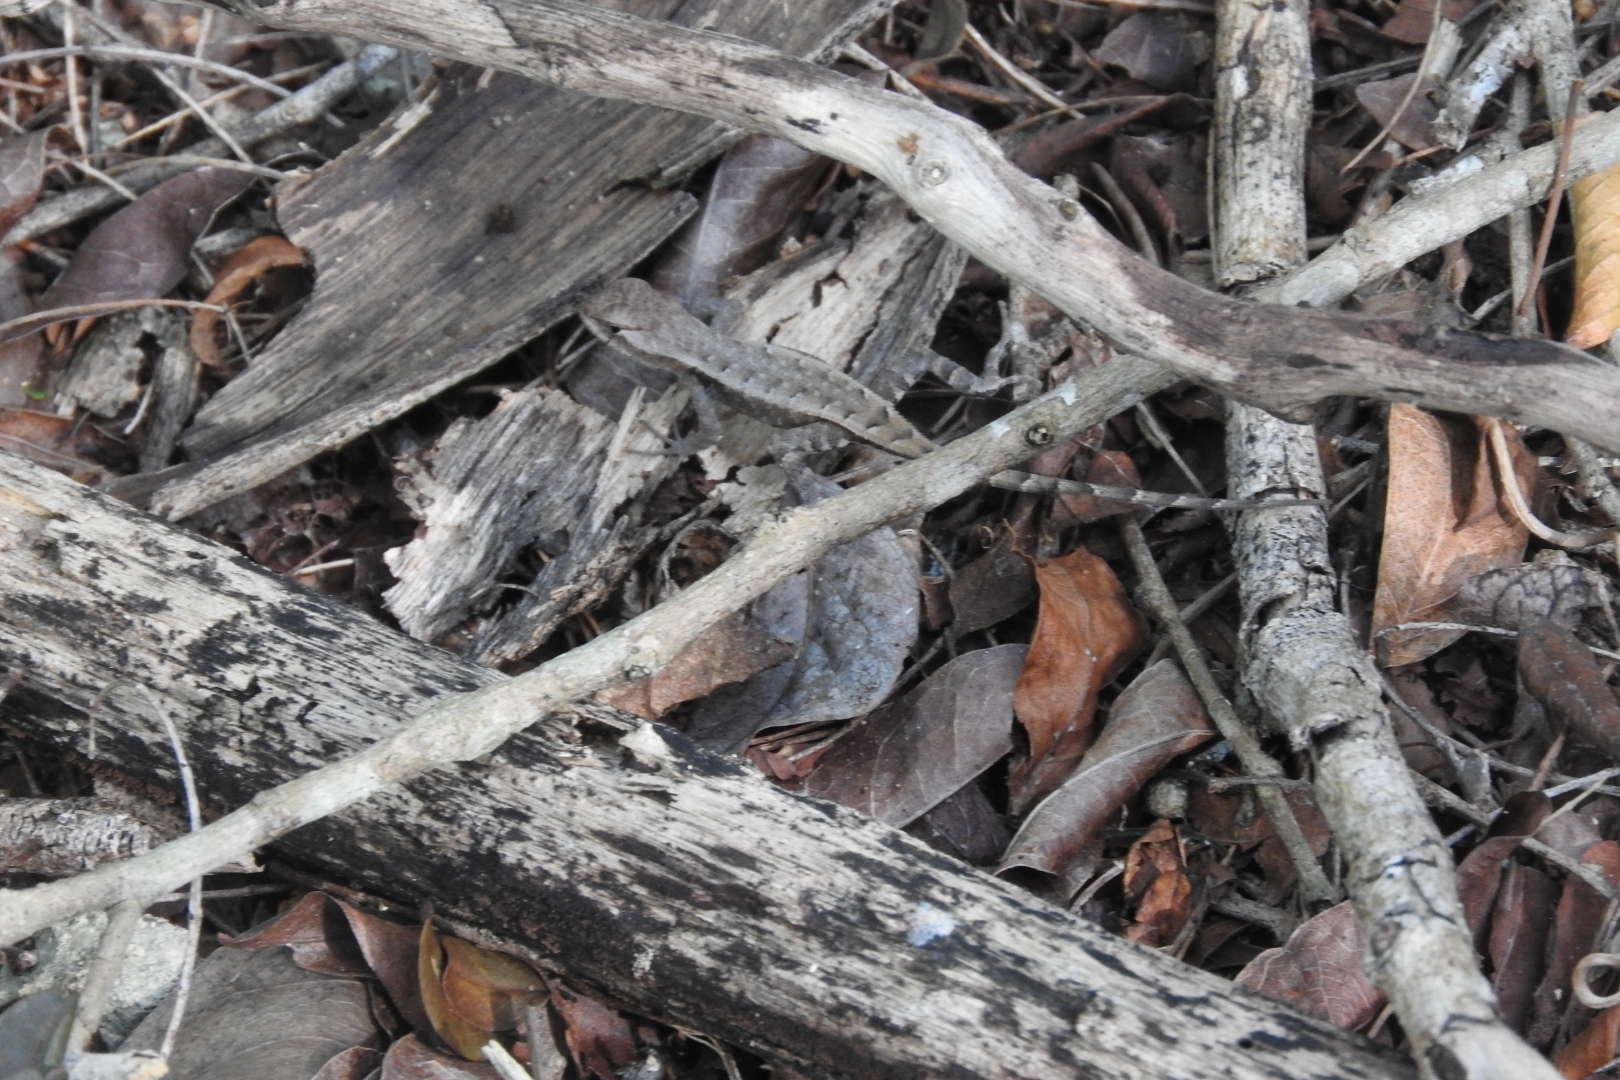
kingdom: Animalia
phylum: Chordata
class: Squamata
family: Phrynosomatidae
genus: Sceloporus
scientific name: Sceloporus chrysostictus
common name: Yellow-spotted spiny lizard
